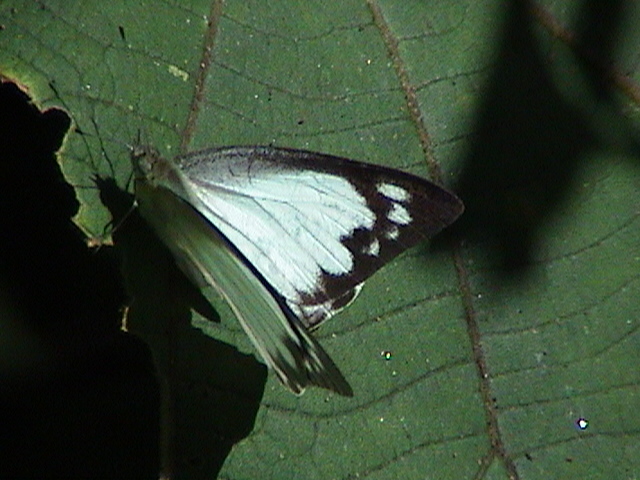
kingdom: Animalia
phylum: Arthropoda
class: Insecta
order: Lepidoptera
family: Pieridae
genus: Appias
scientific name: Appias albina
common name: Common albatross
